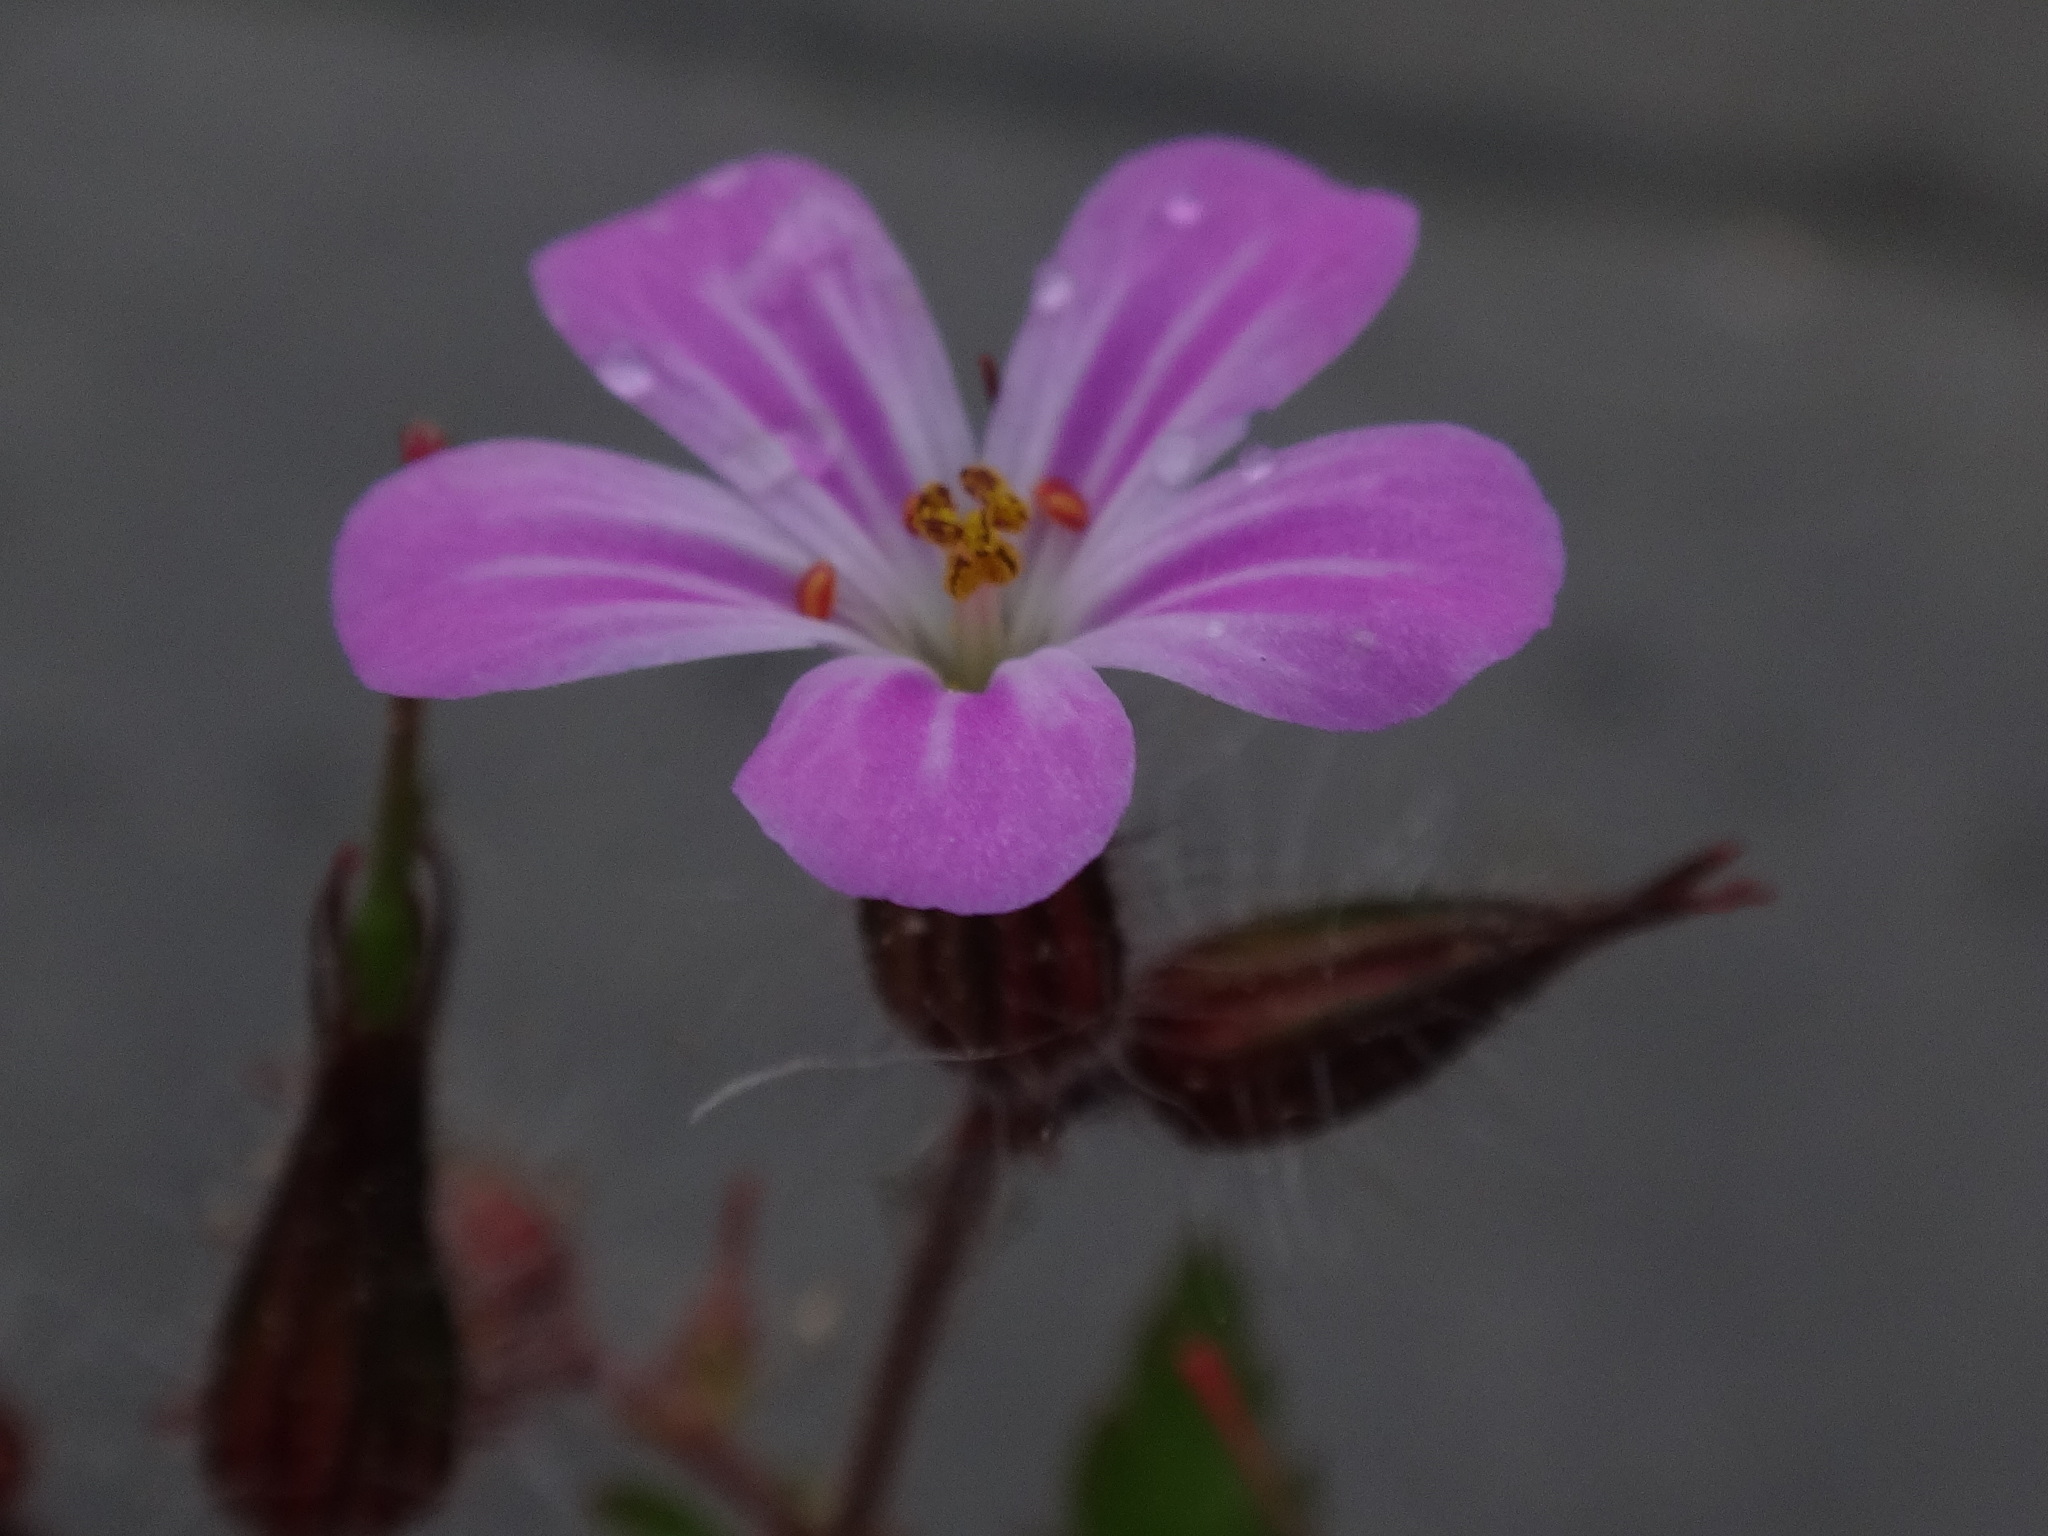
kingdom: Plantae
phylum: Tracheophyta
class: Magnoliopsida
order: Geraniales
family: Geraniaceae
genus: Geranium
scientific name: Geranium robertianum
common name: Herb-robert
